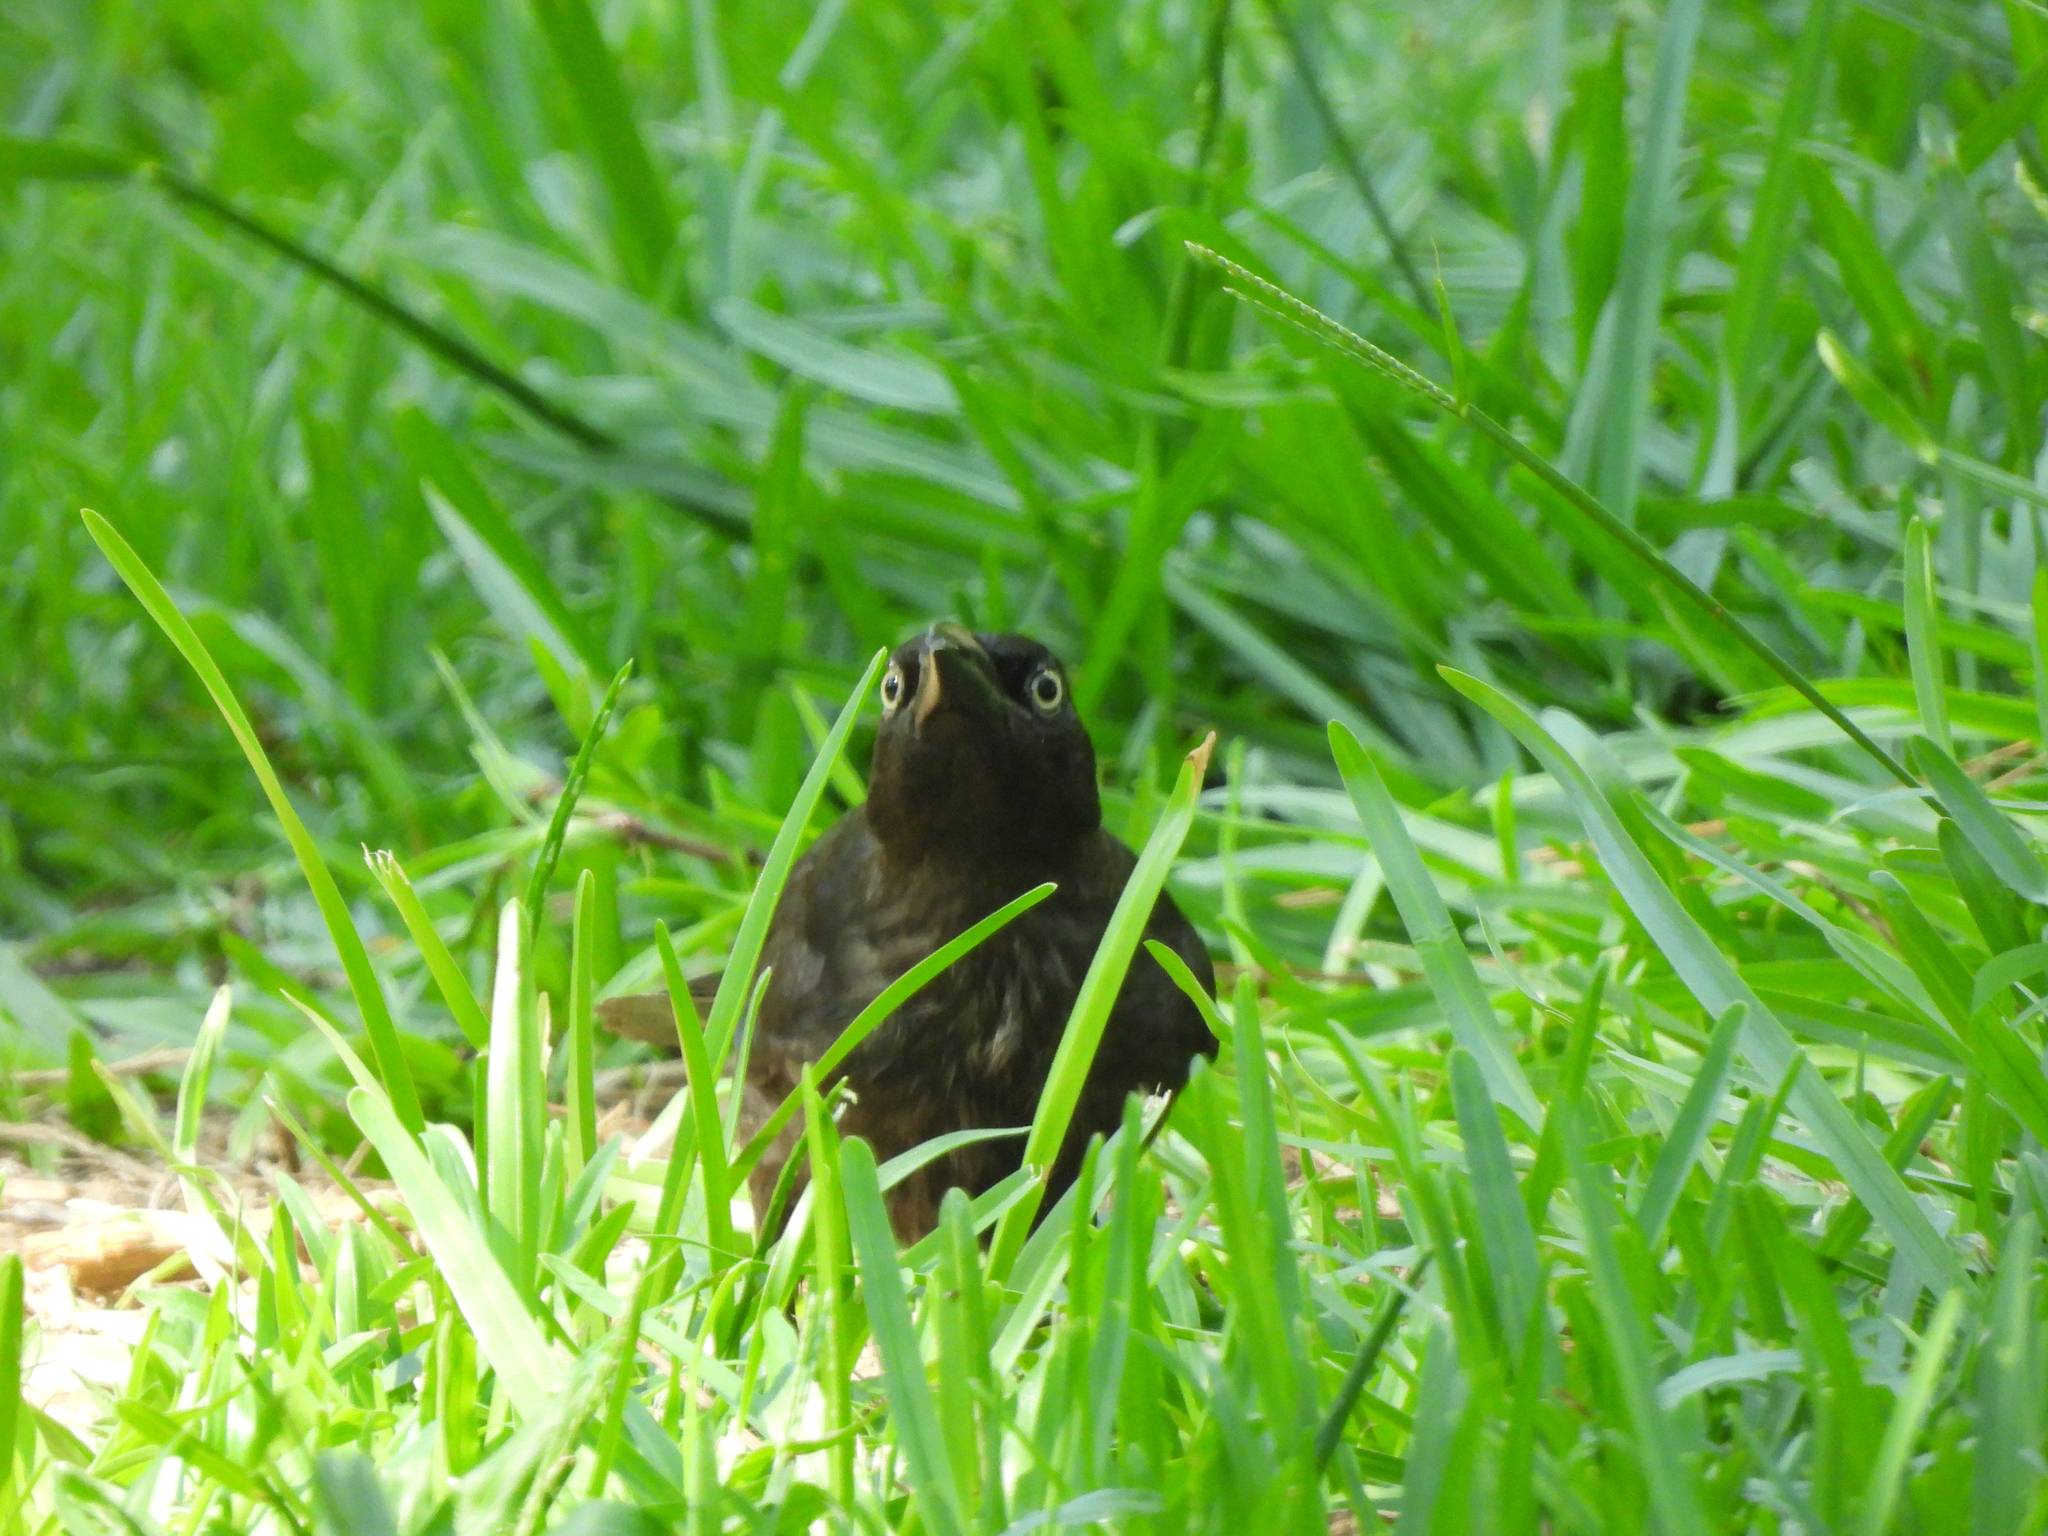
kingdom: Animalia
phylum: Chordata
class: Aves
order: Passeriformes
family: Icteridae
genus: Quiscalus
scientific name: Quiscalus quiscula
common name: Common grackle
